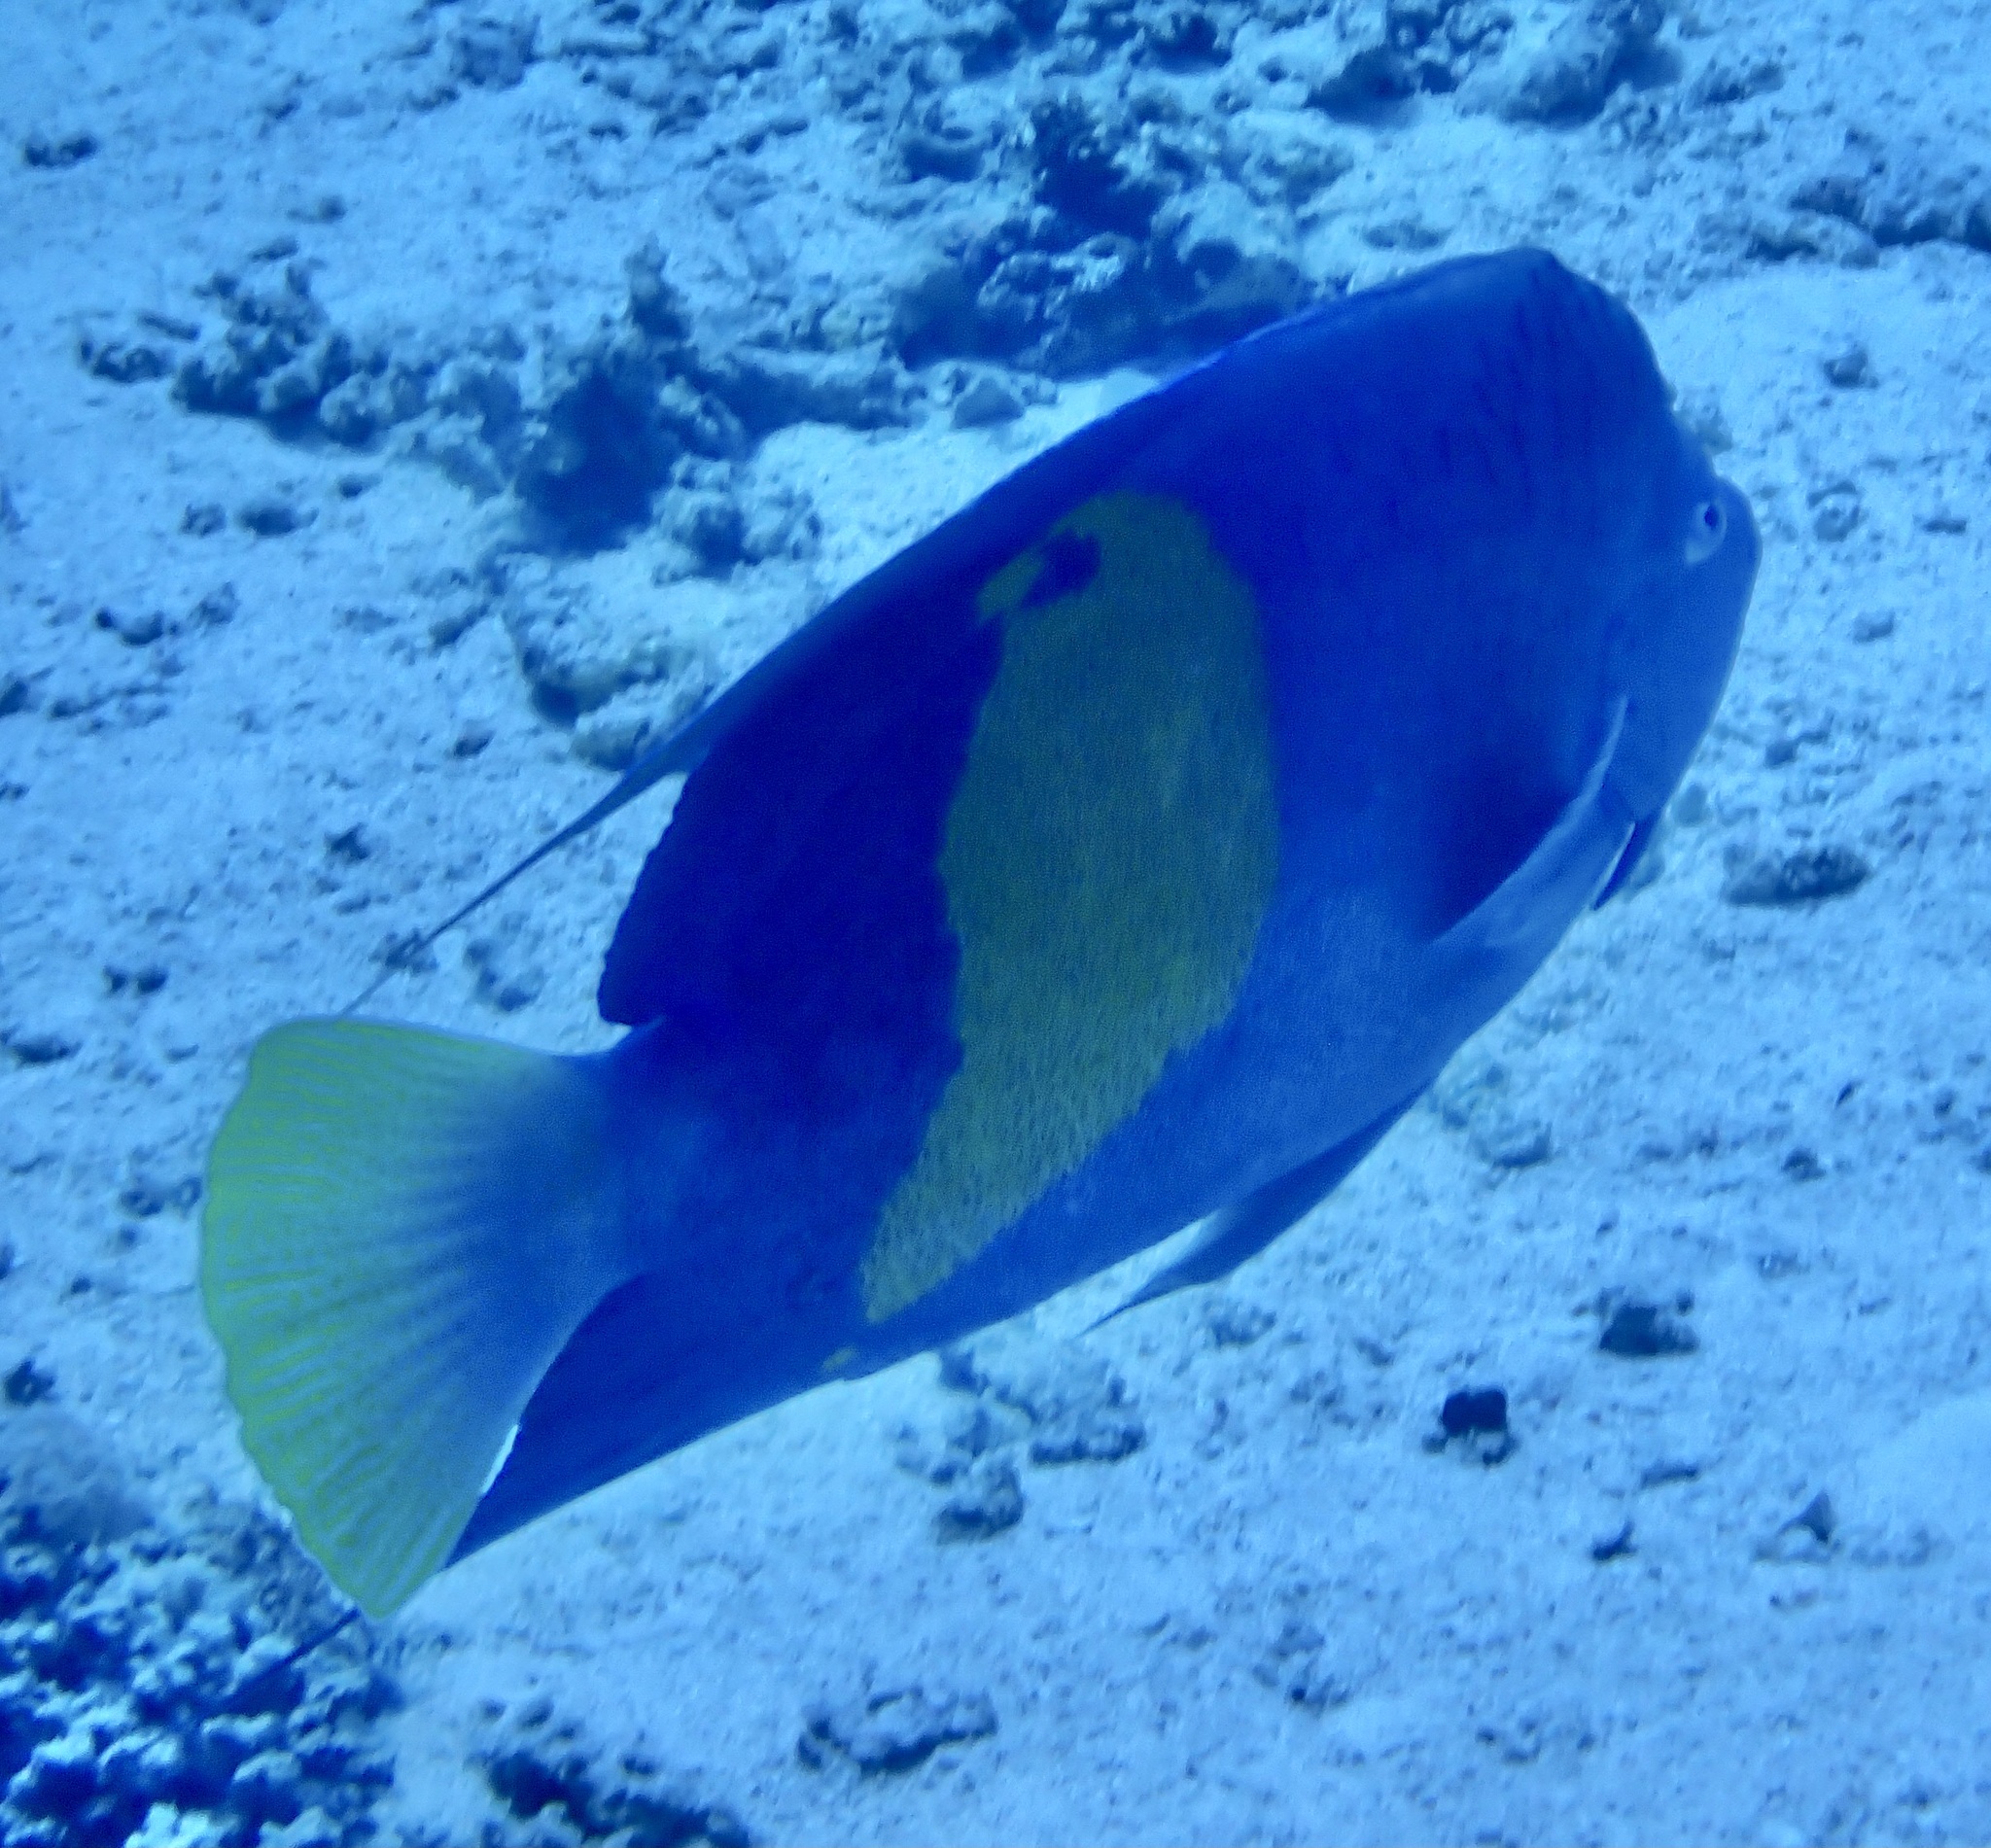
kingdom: Animalia
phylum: Chordata
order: Perciformes
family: Pomacanthidae
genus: Pomacanthus
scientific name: Pomacanthus maculosus
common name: Yellowbar angelfish
